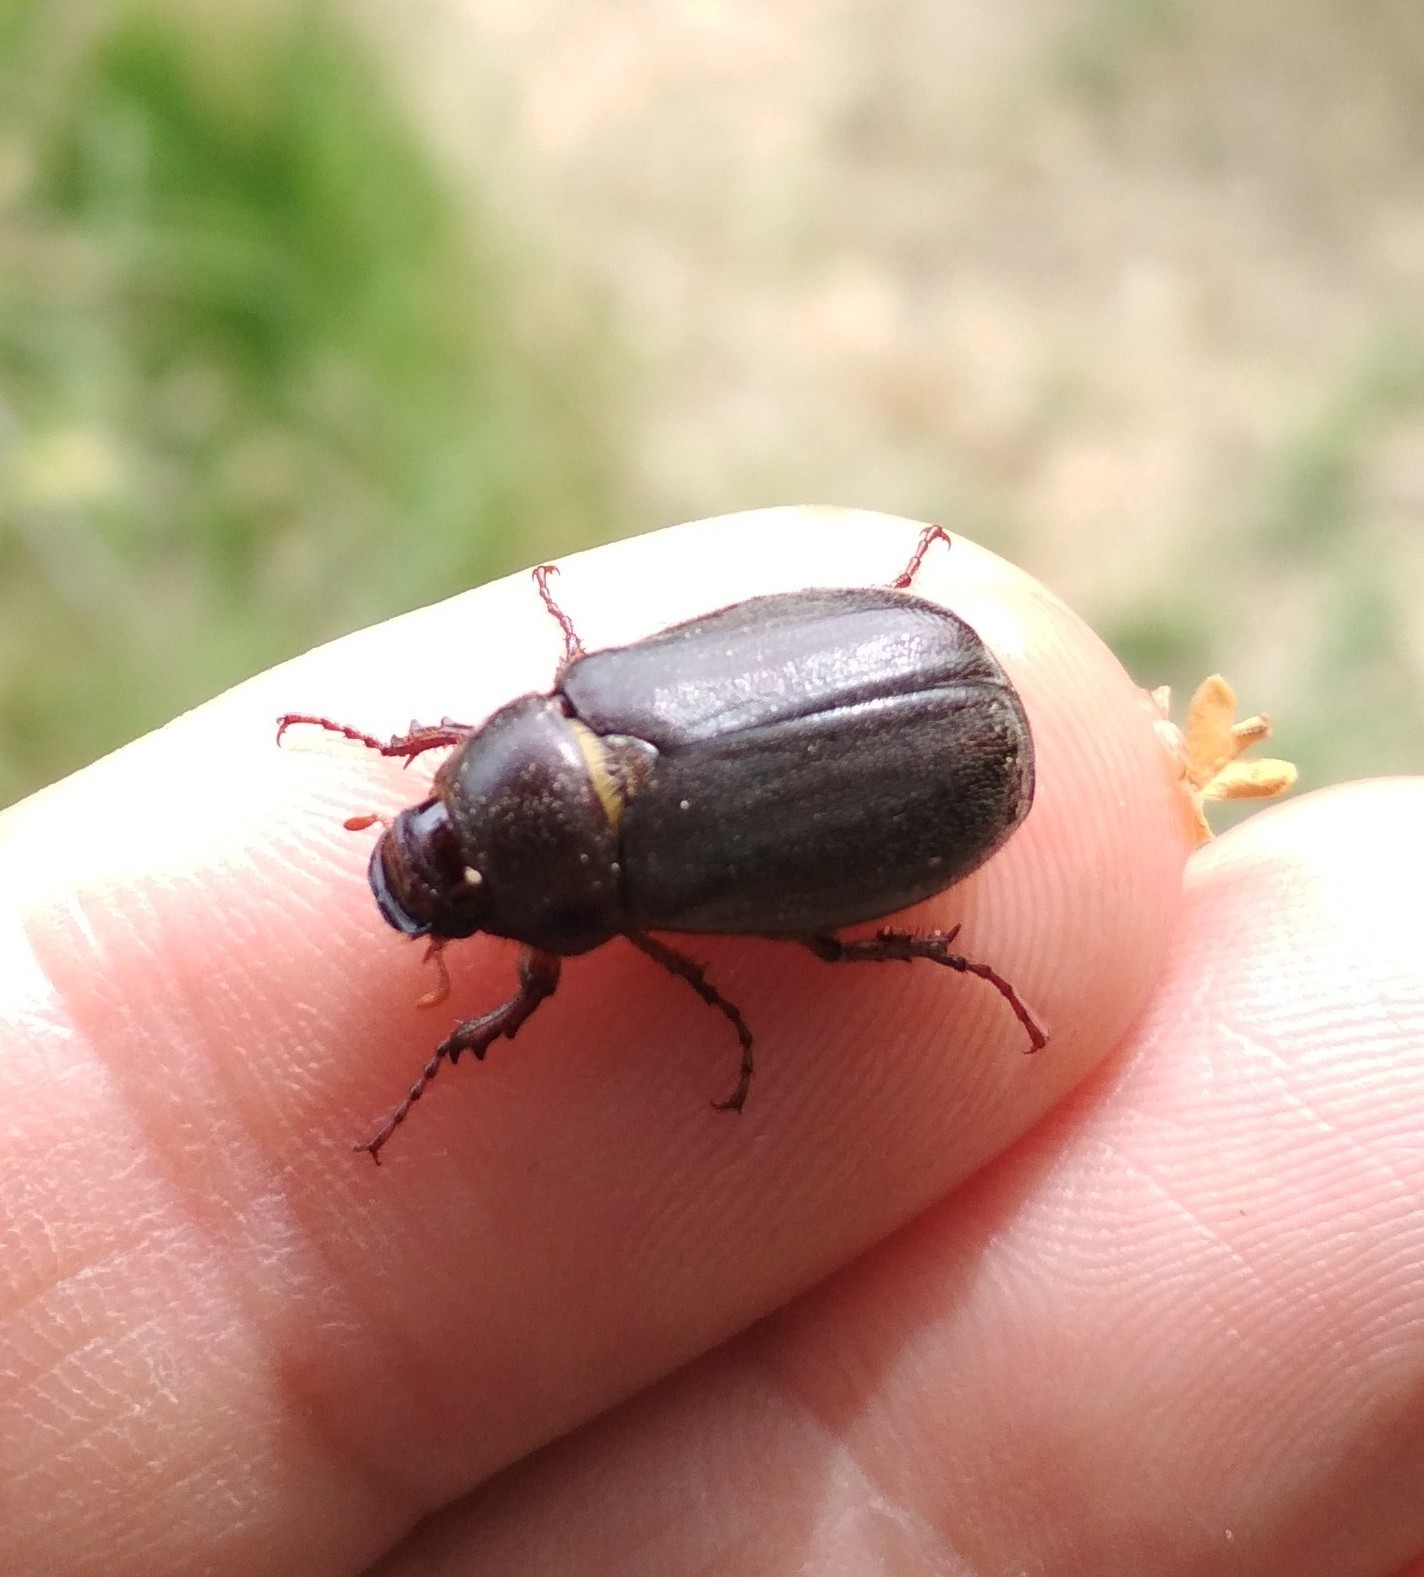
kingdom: Animalia
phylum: Arthropoda
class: Insecta
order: Coleoptera
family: Scarabaeidae
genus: Aplidia
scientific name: Aplidia transversa
